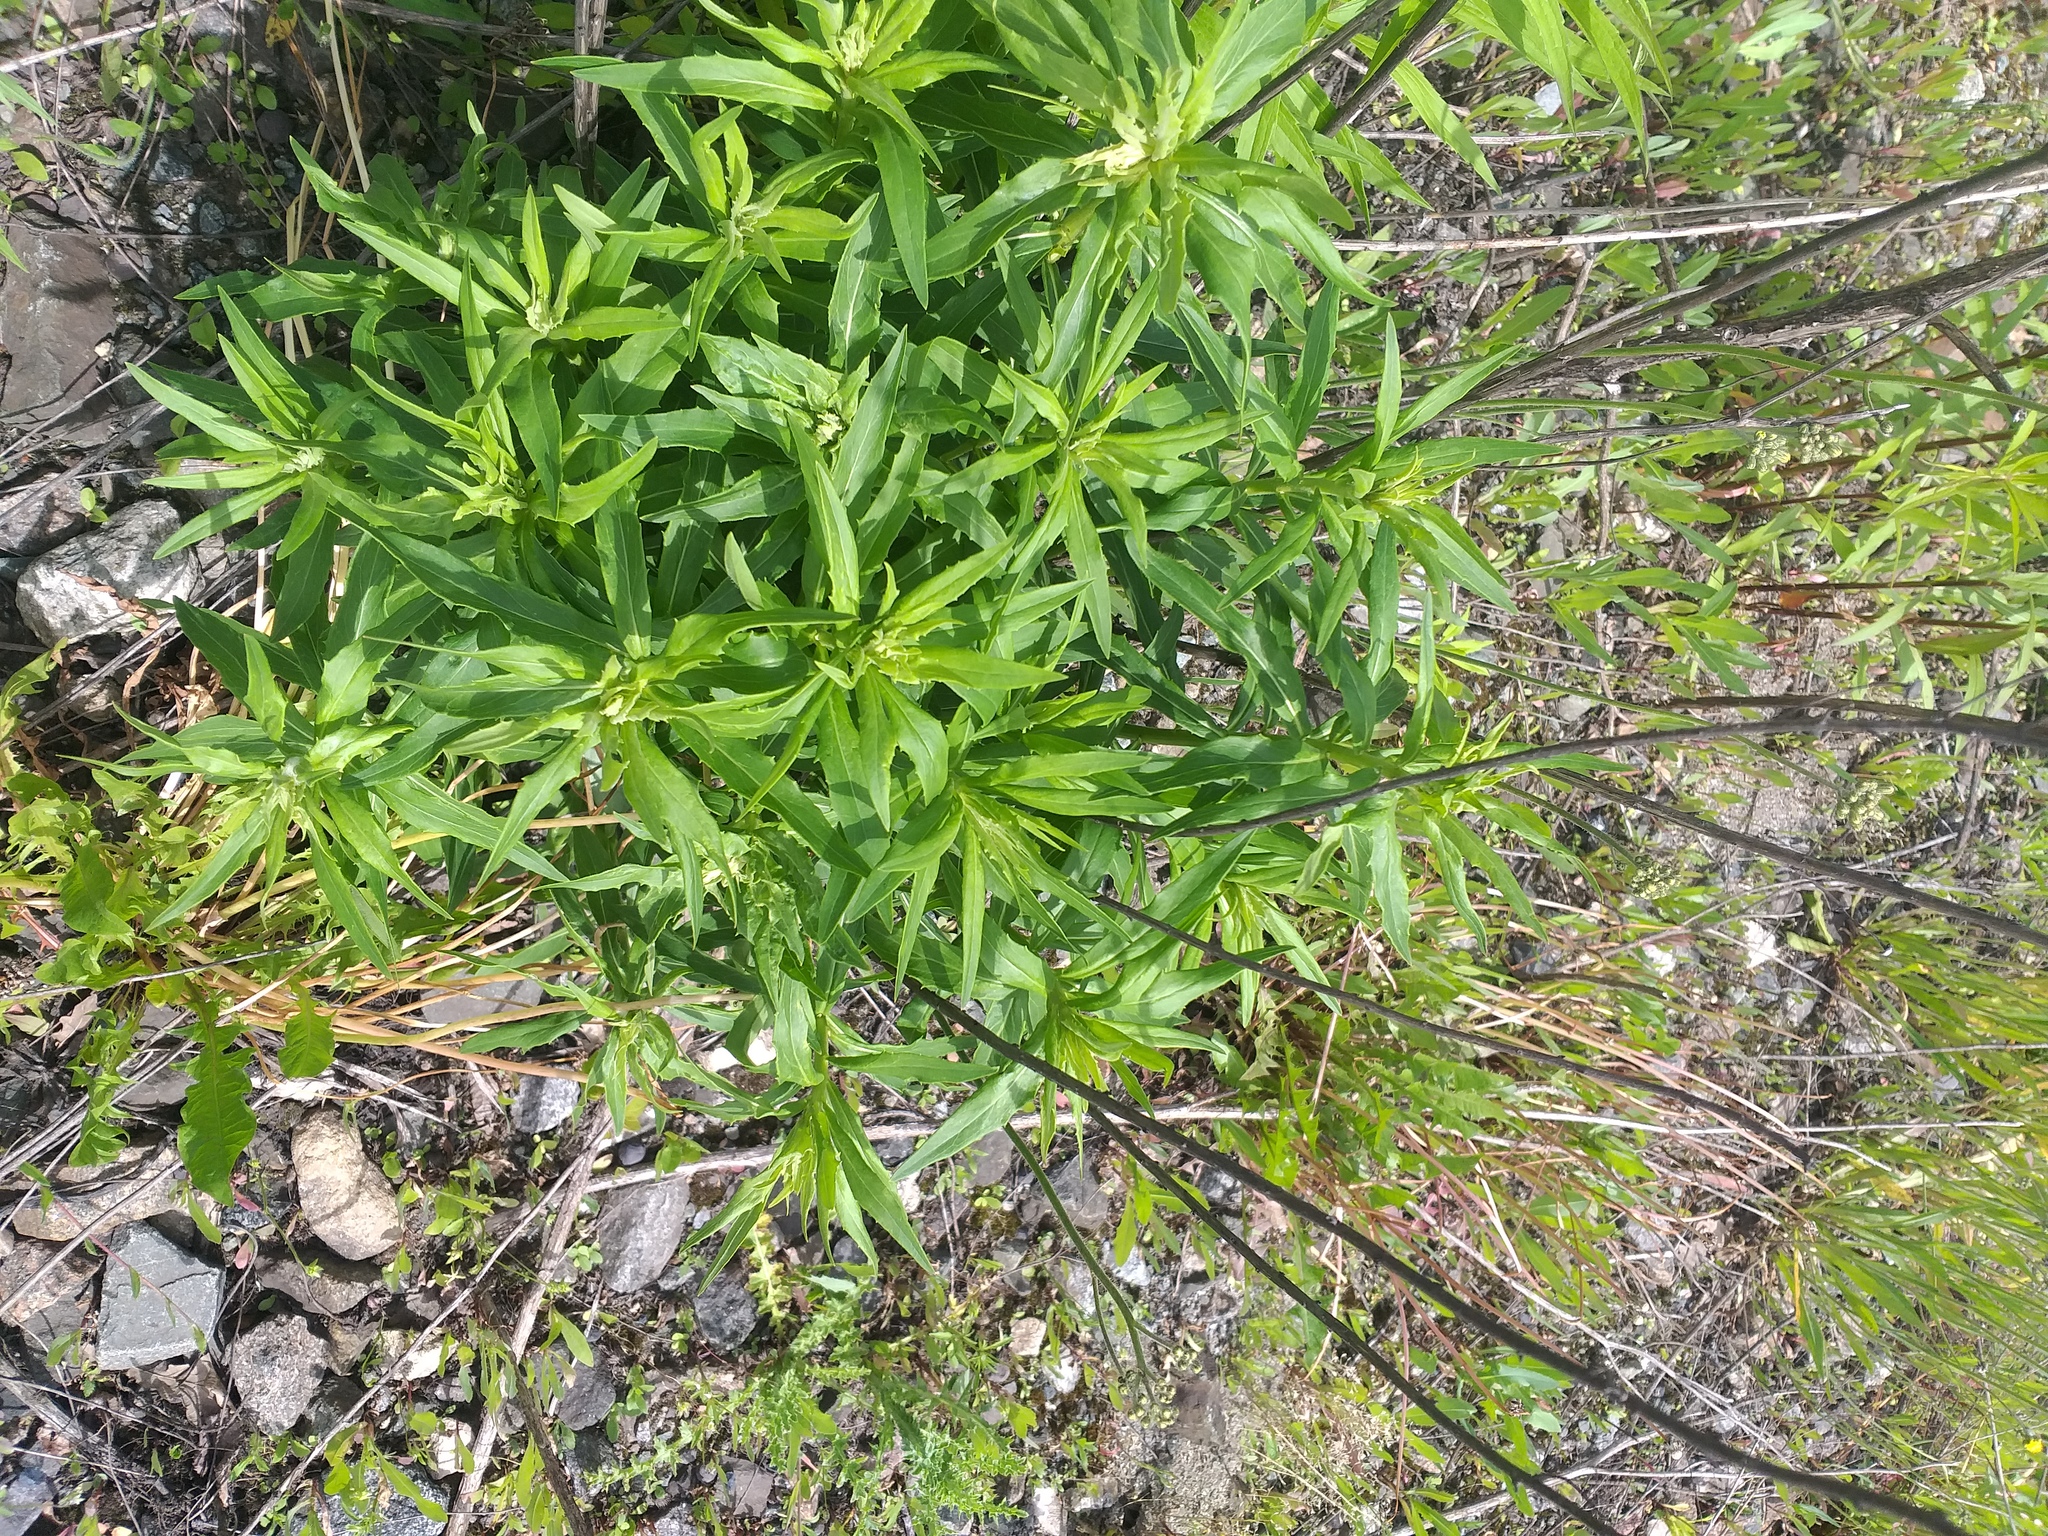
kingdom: Plantae
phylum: Tracheophyta
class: Magnoliopsida
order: Asterales
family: Asteraceae
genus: Hieracium
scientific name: Hieracium umbellatum
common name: Northern hawkweed
